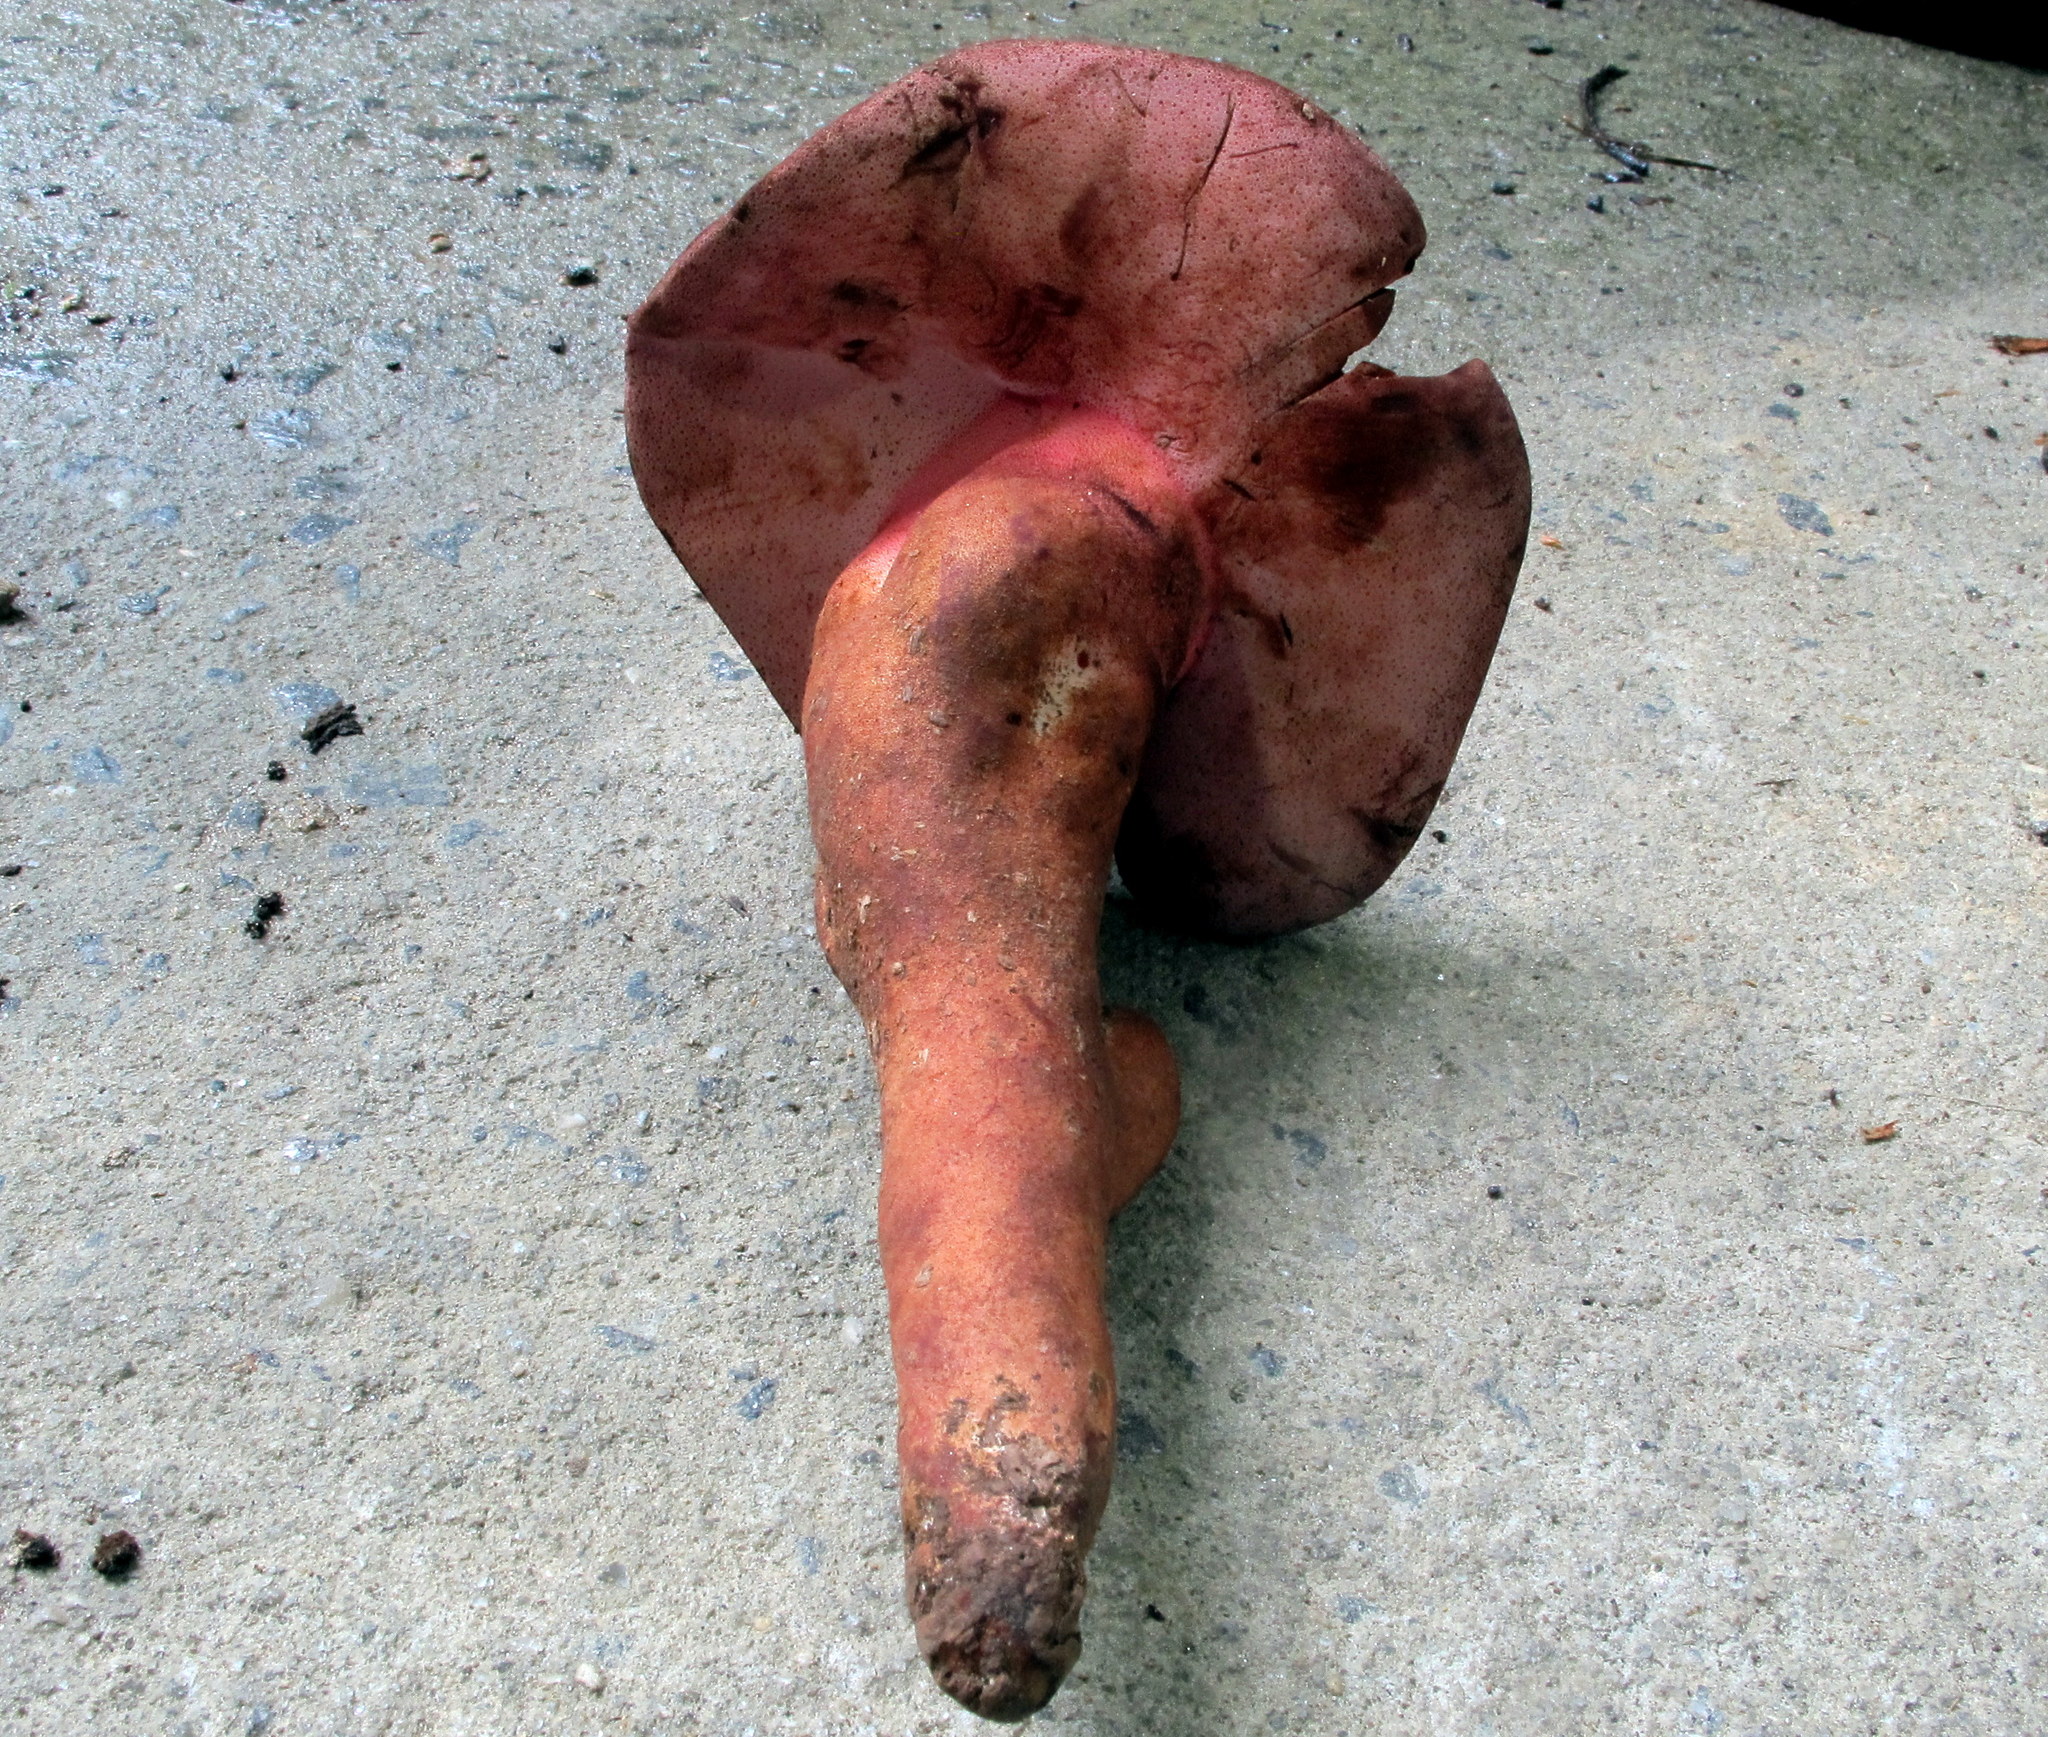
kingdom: Fungi
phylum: Basidiomycota
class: Agaricomycetes
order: Agaricales
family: Fistulinaceae
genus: Fistulina
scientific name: Fistulina hepatica
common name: Beef-steak fungus
